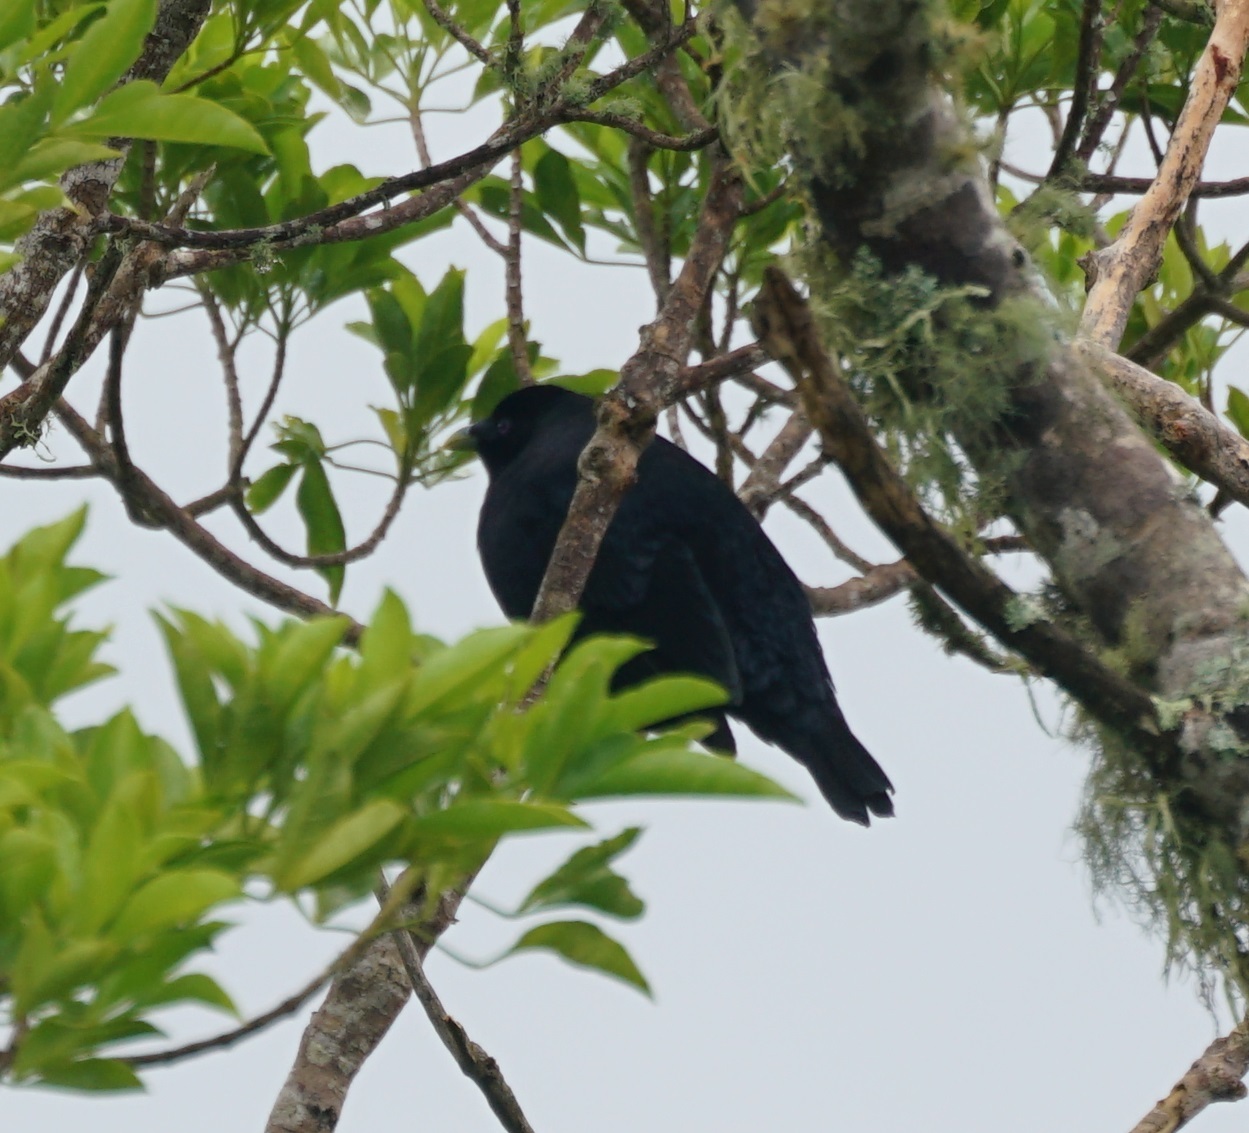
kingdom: Animalia
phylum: Chordata
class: Aves
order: Passeriformes
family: Ptilonorhynchidae
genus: Ptilonorhynchus
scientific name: Ptilonorhynchus violaceus
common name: Satin bowerbird
